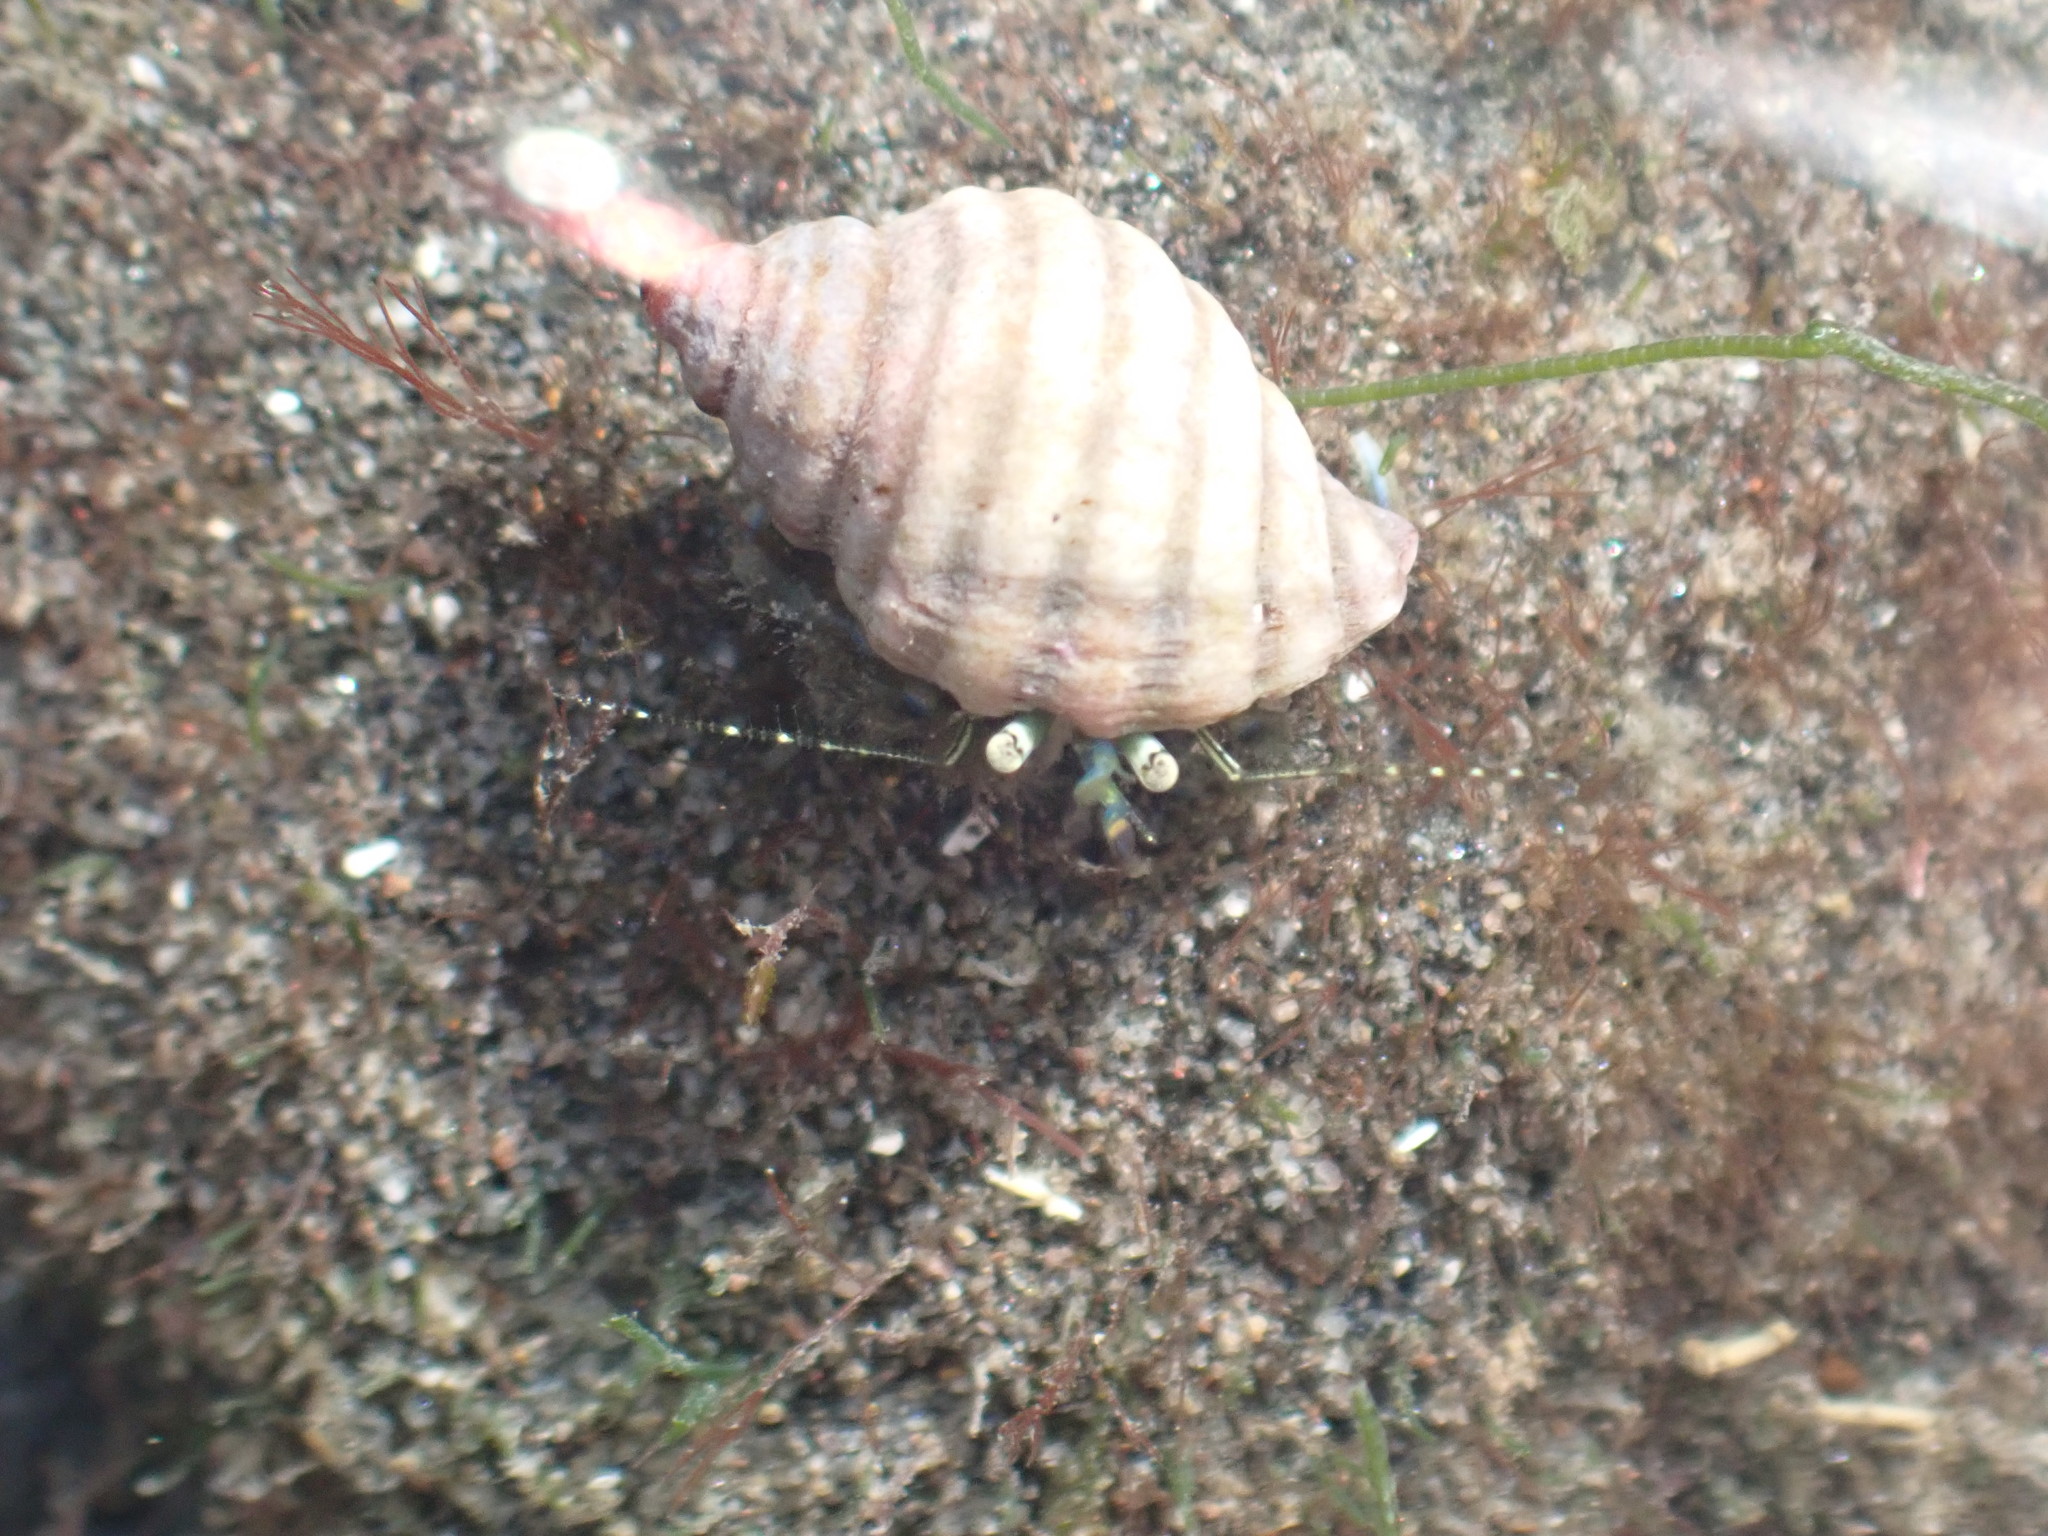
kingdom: Animalia
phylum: Arthropoda
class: Malacostraca
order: Decapoda
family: Paguridae
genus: Pagurus
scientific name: Pagurus novizealandiae
